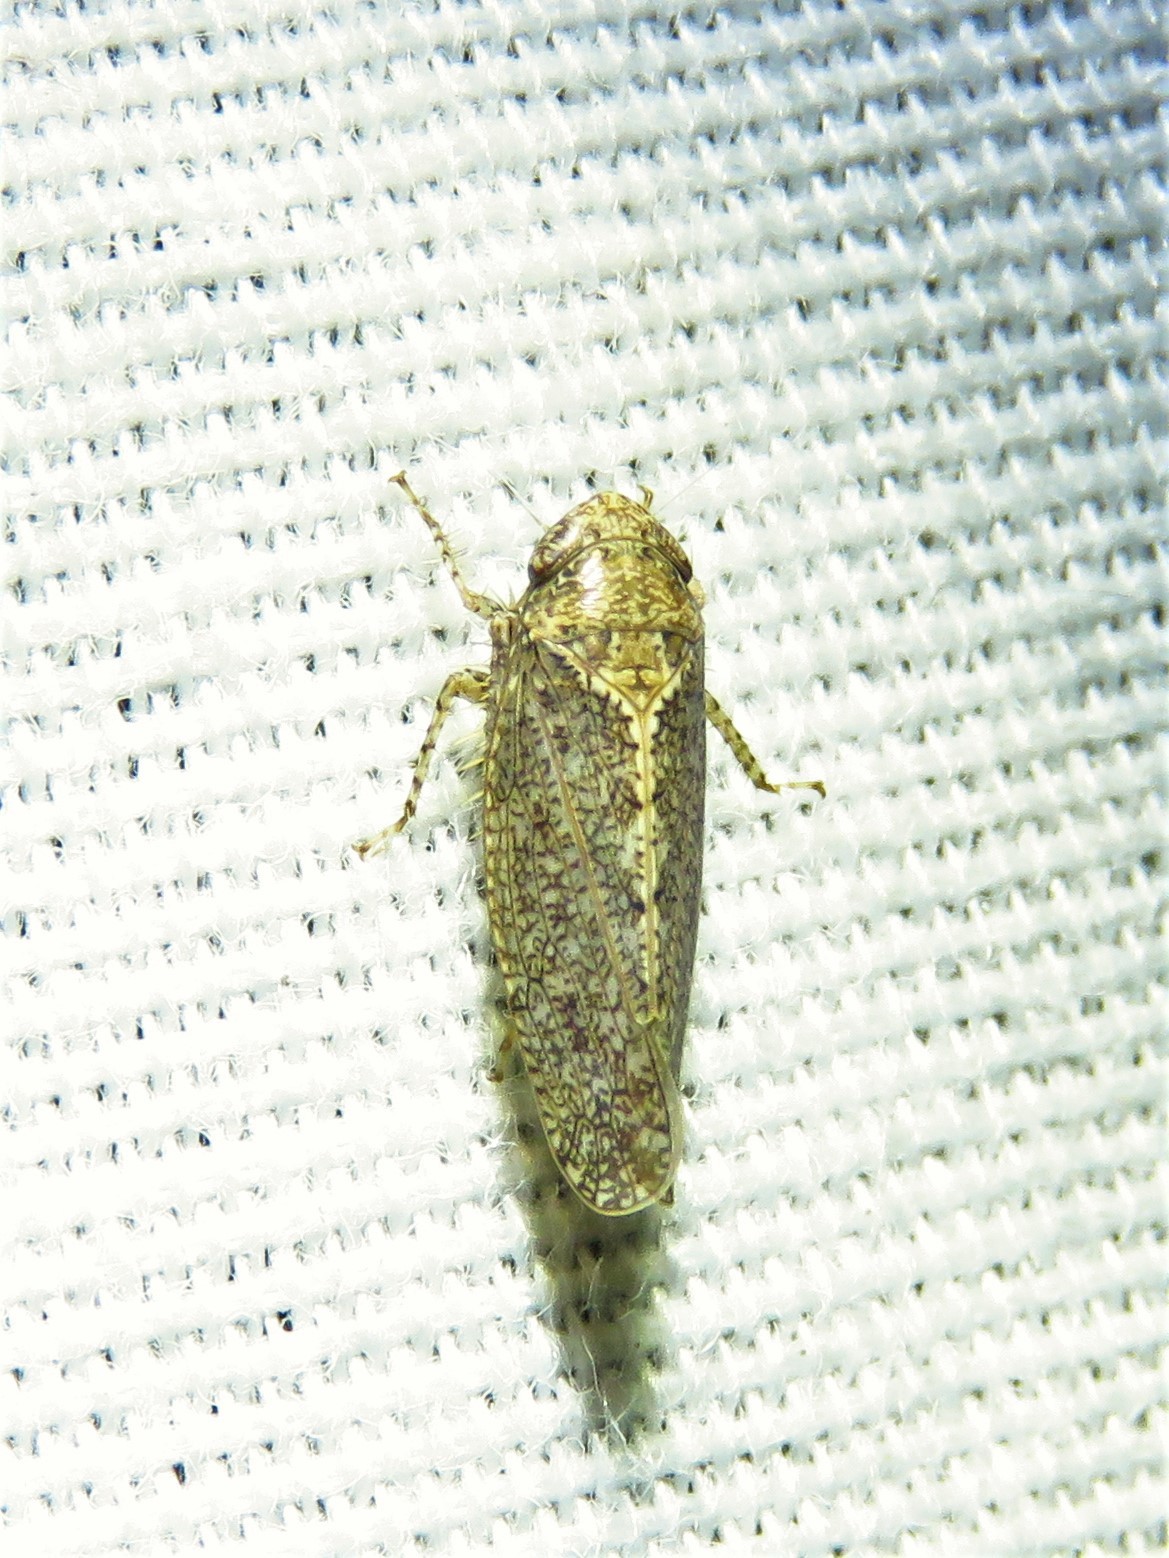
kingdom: Animalia
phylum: Arthropoda
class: Insecta
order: Hemiptera
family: Cicadellidae
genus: Excultanus
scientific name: Excultanus excultus
